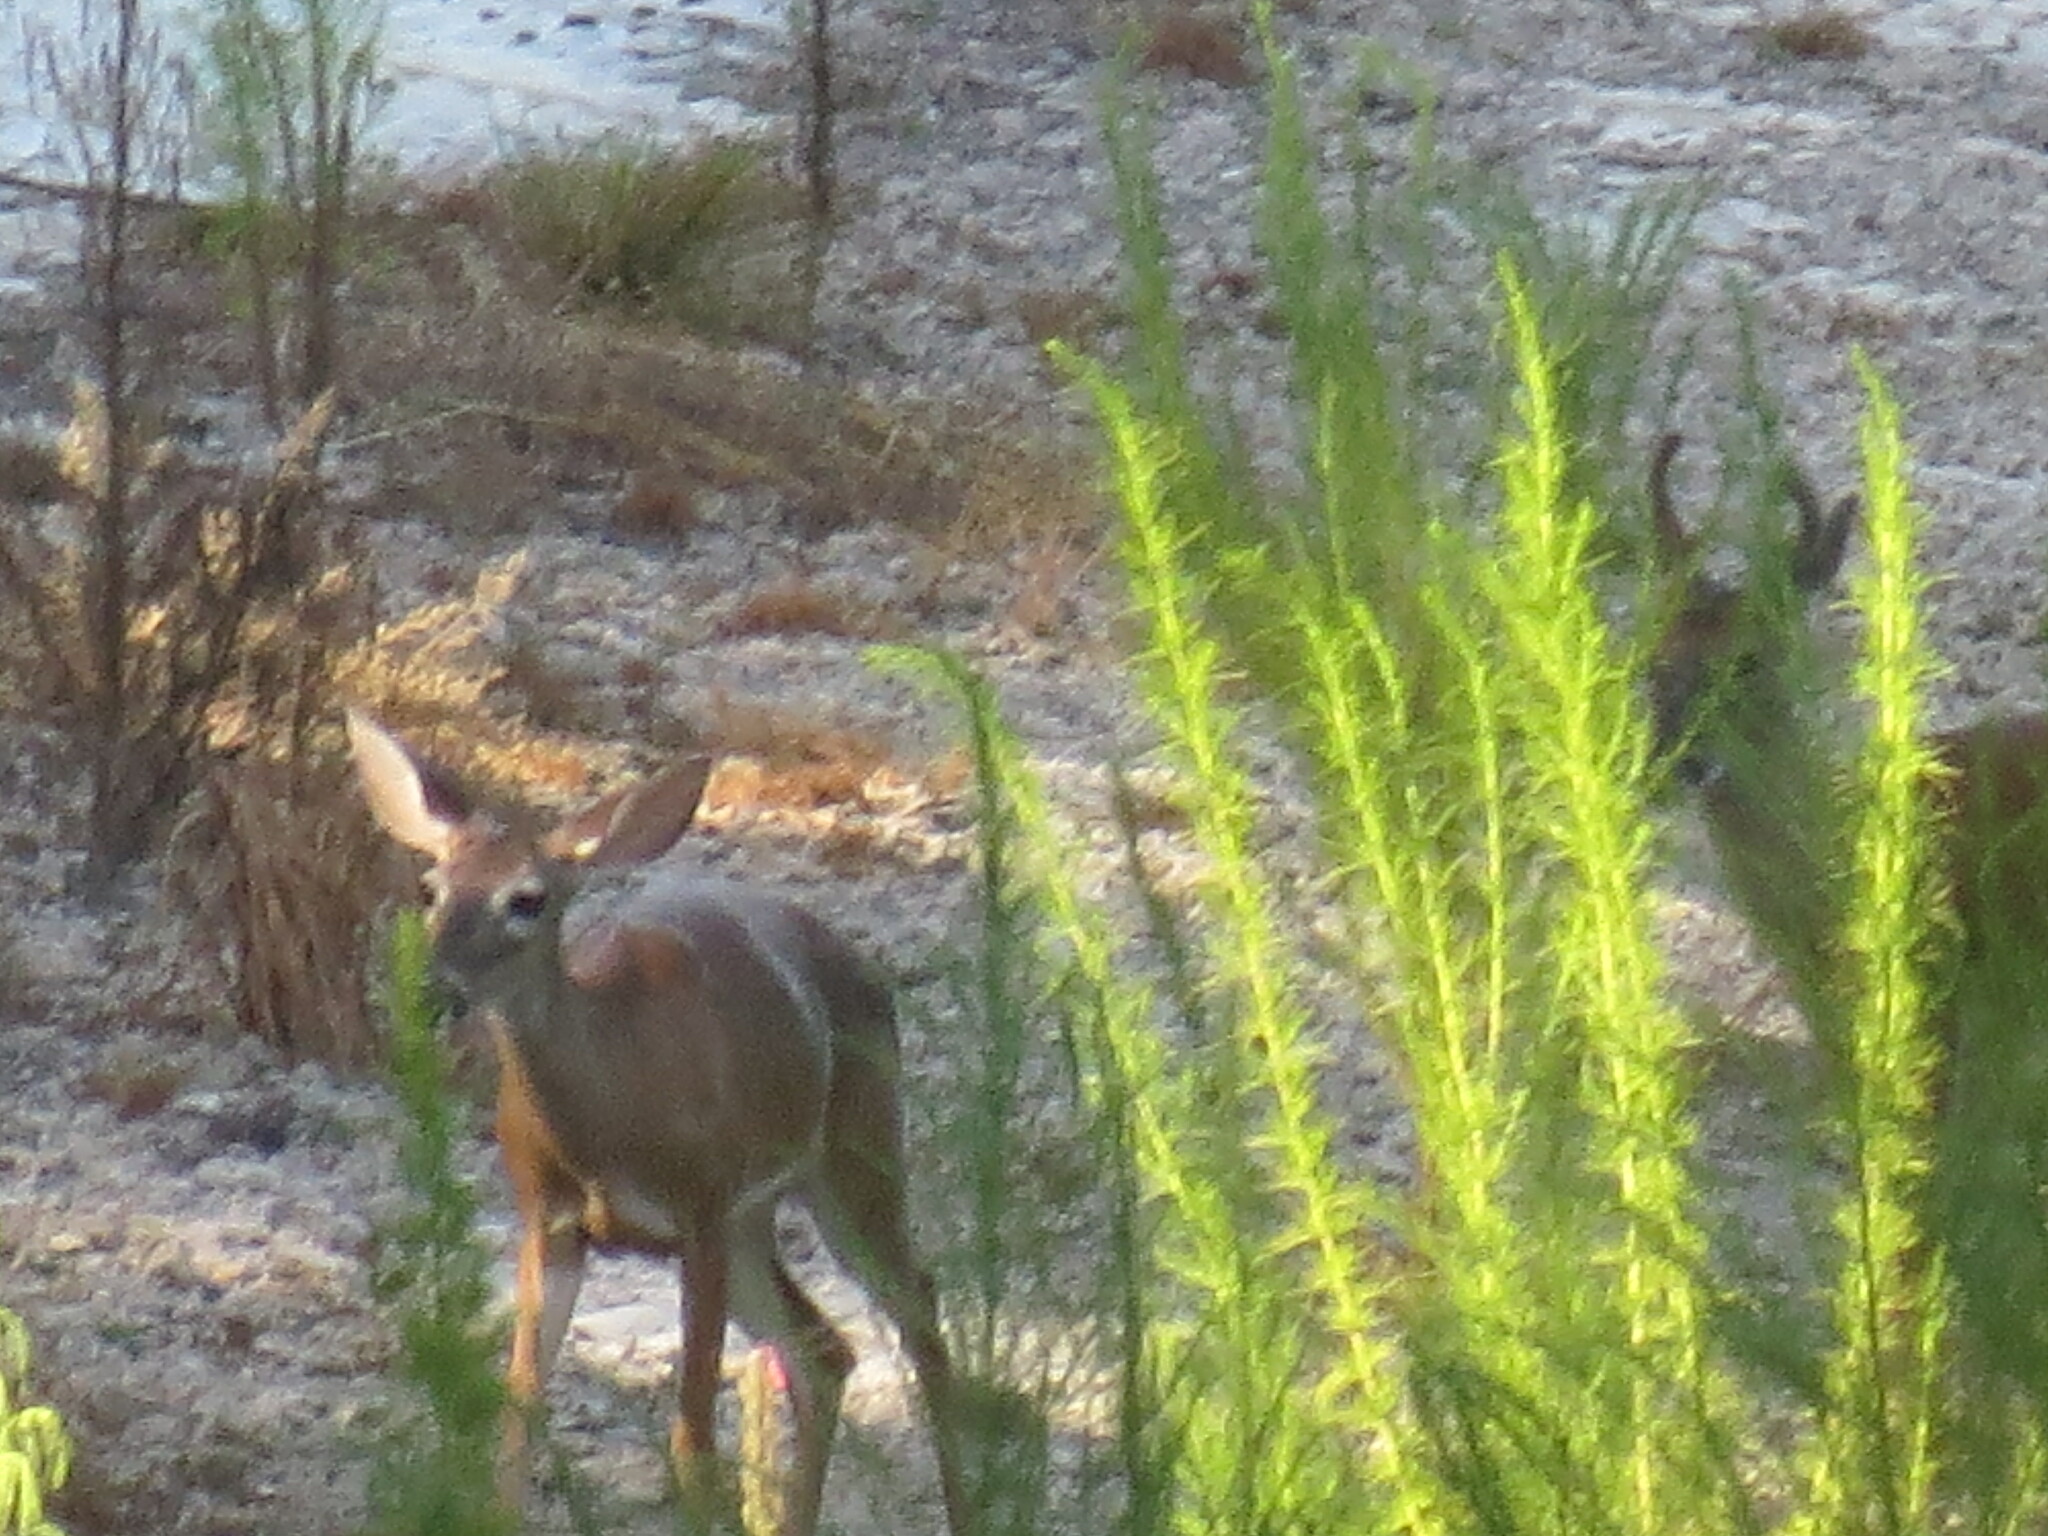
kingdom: Animalia
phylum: Chordata
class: Mammalia
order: Artiodactyla
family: Cervidae
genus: Odocoileus
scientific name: Odocoileus virginianus
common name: White-tailed deer
